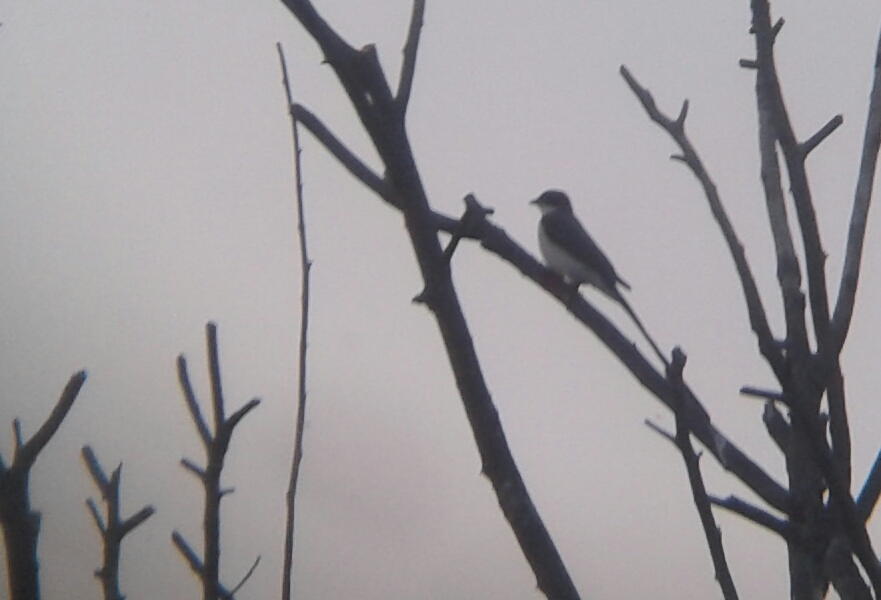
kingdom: Animalia
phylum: Chordata
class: Aves
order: Passeriformes
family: Tyrannidae
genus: Tyrannus
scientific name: Tyrannus savana
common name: Fork-tailed flycatcher
